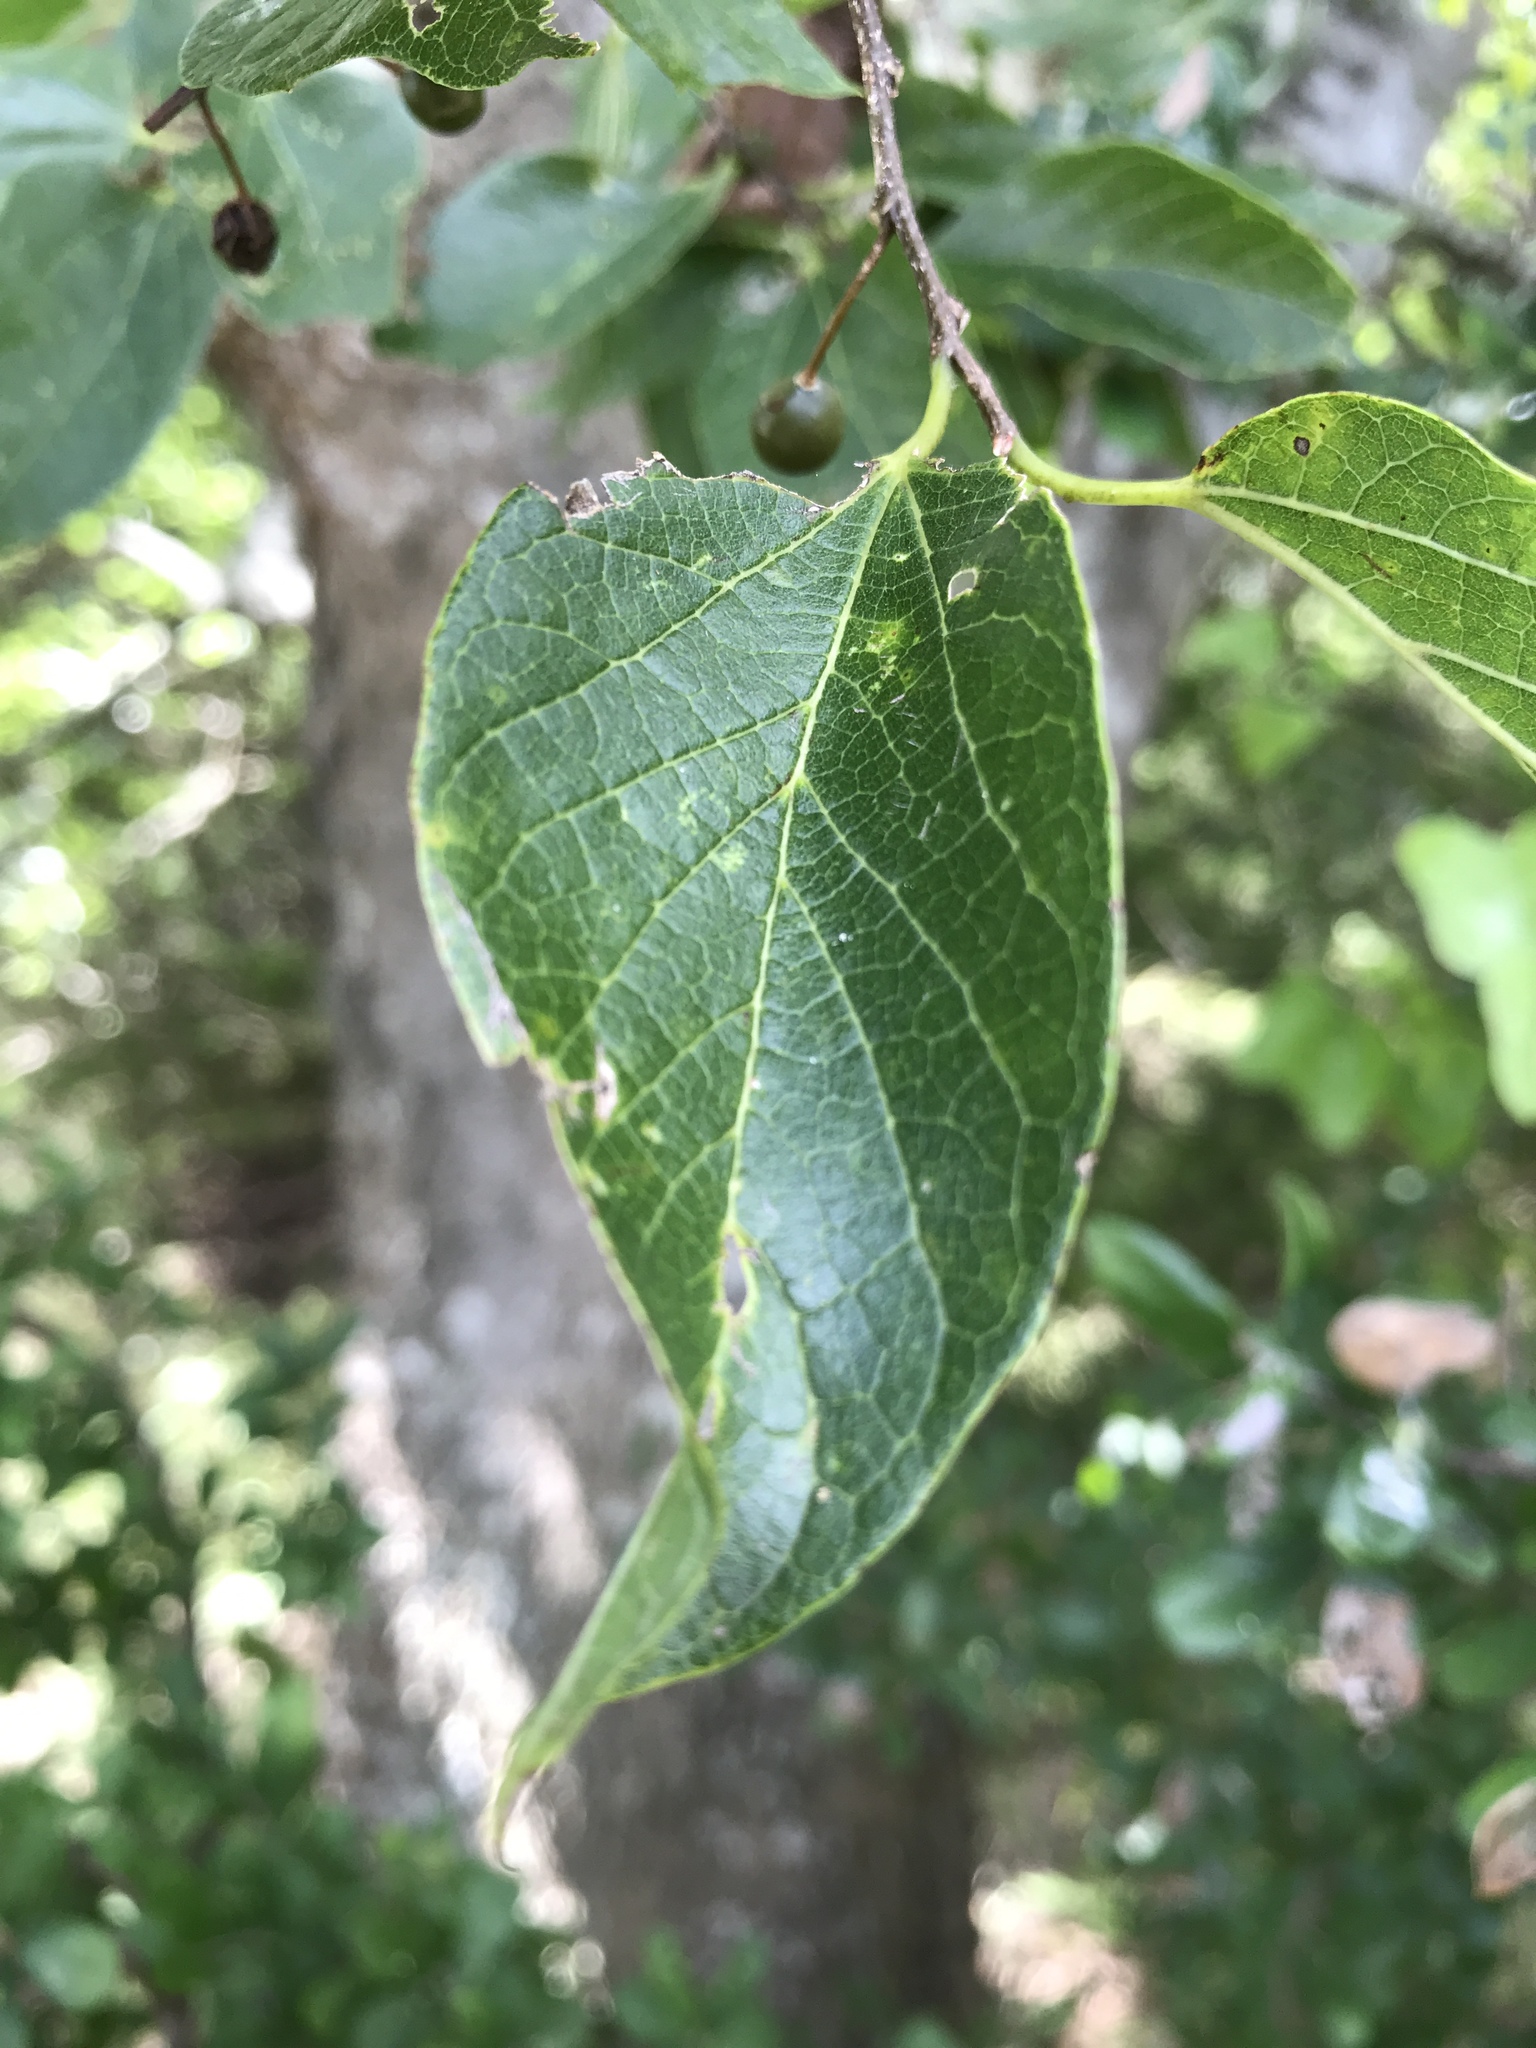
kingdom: Plantae
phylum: Tracheophyta
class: Magnoliopsida
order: Rosales
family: Cannabaceae
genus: Celtis
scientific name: Celtis laevigata
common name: Sugarberry
